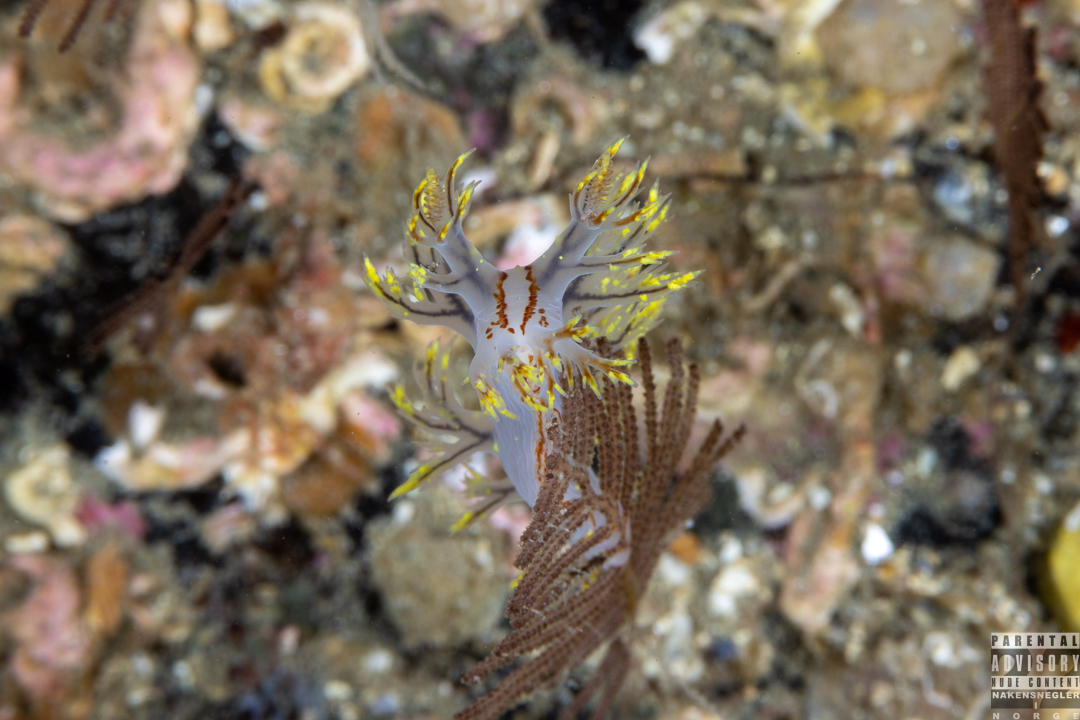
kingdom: Animalia
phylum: Mollusca
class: Gastropoda
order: Nudibranchia
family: Dendronotidae
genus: Dendronotus
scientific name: Dendronotus yrjargul
